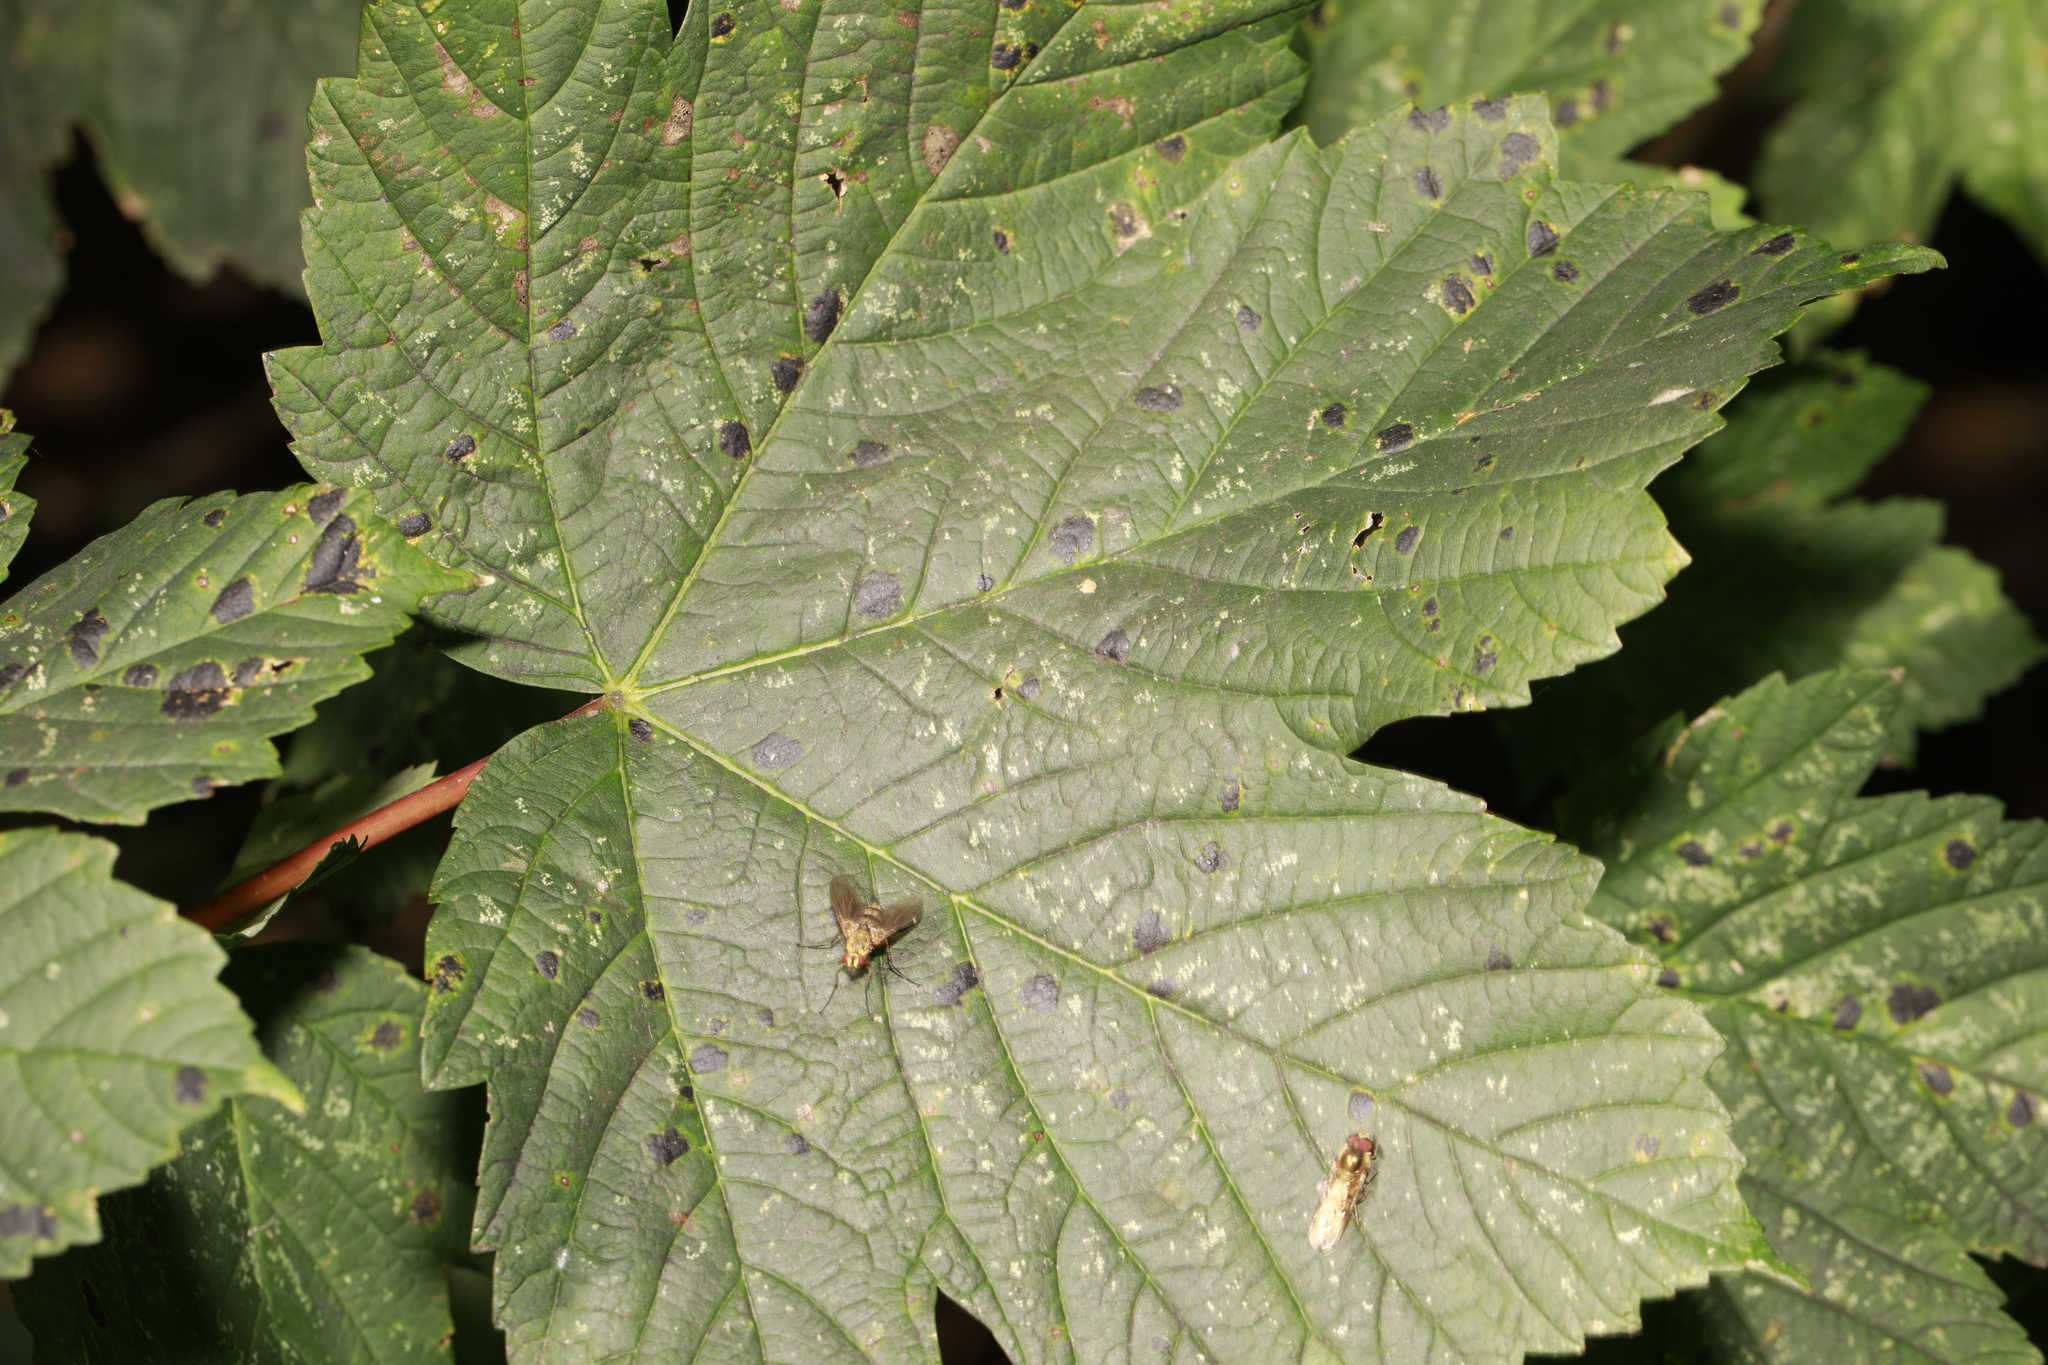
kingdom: Fungi
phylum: Ascomycota
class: Leotiomycetes
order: Rhytismatales
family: Rhytismataceae
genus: Rhytisma
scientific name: Rhytisma acerinum
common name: European tar spot
